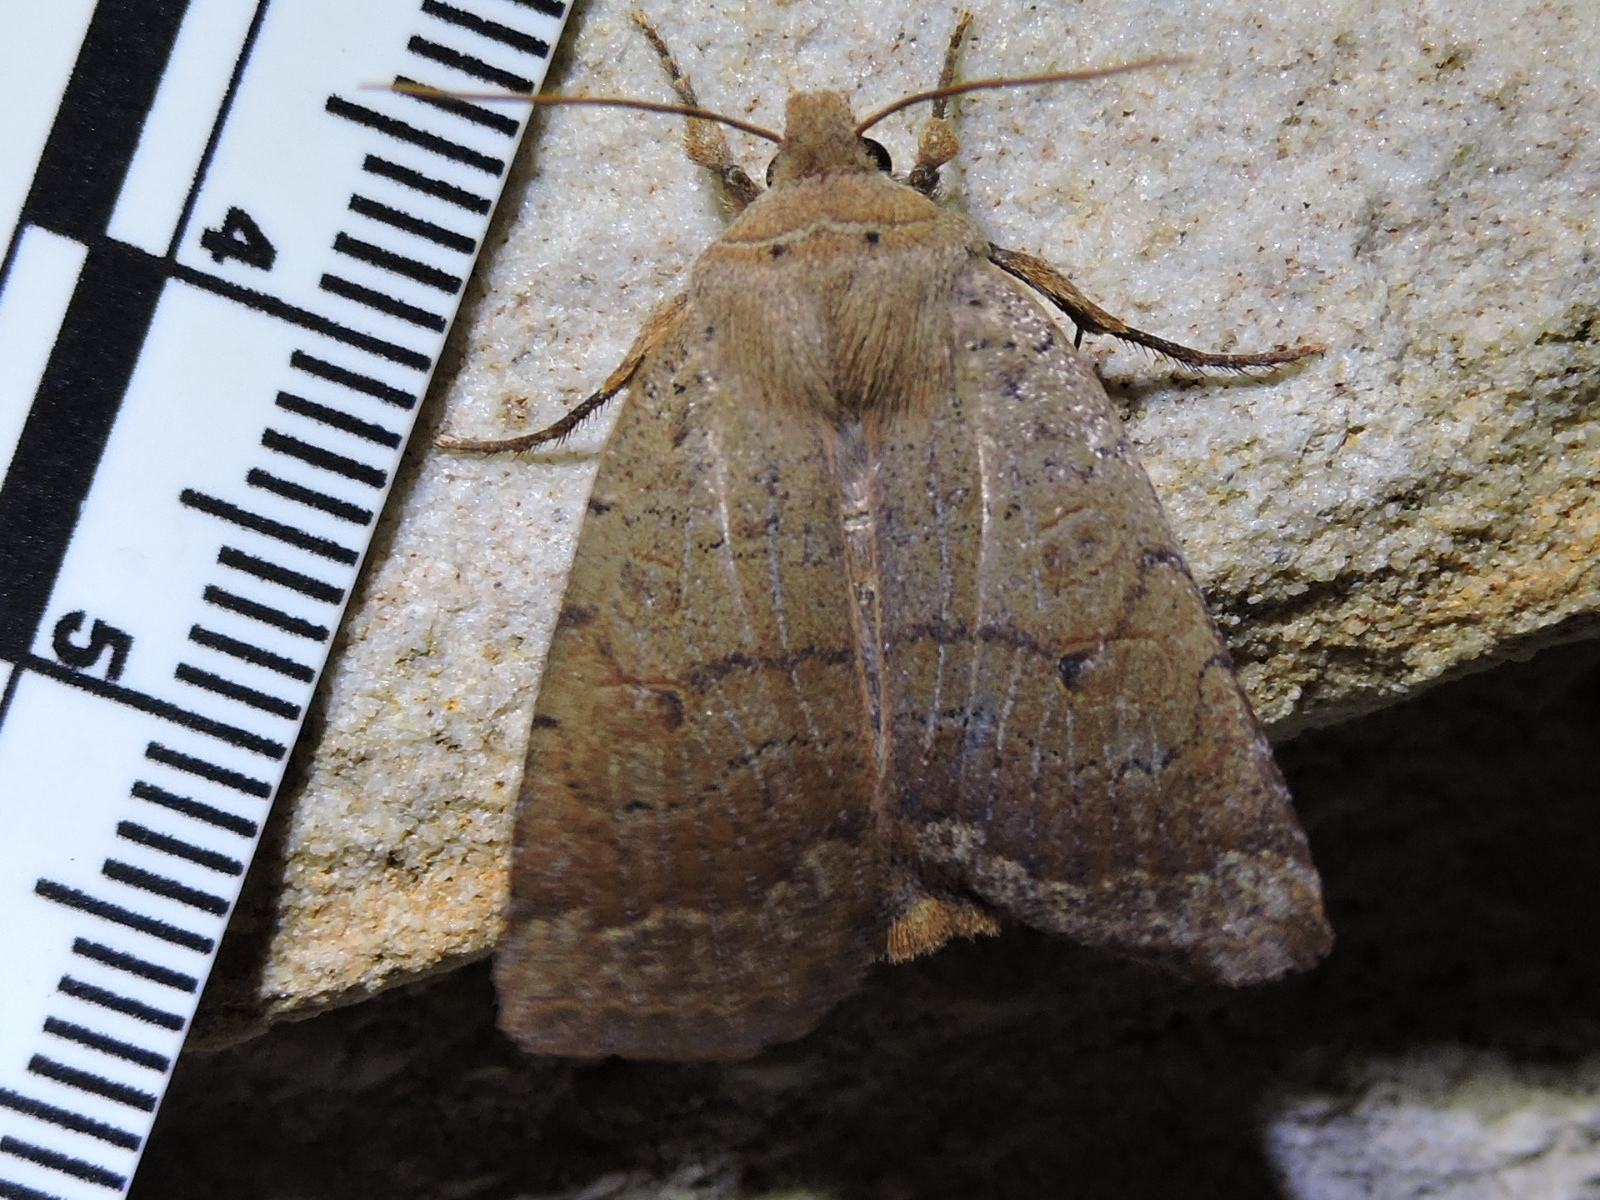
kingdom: Animalia
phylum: Arthropoda
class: Insecta
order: Lepidoptera
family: Noctuidae
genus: Sericaglaea
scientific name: Sericaglaea signata
